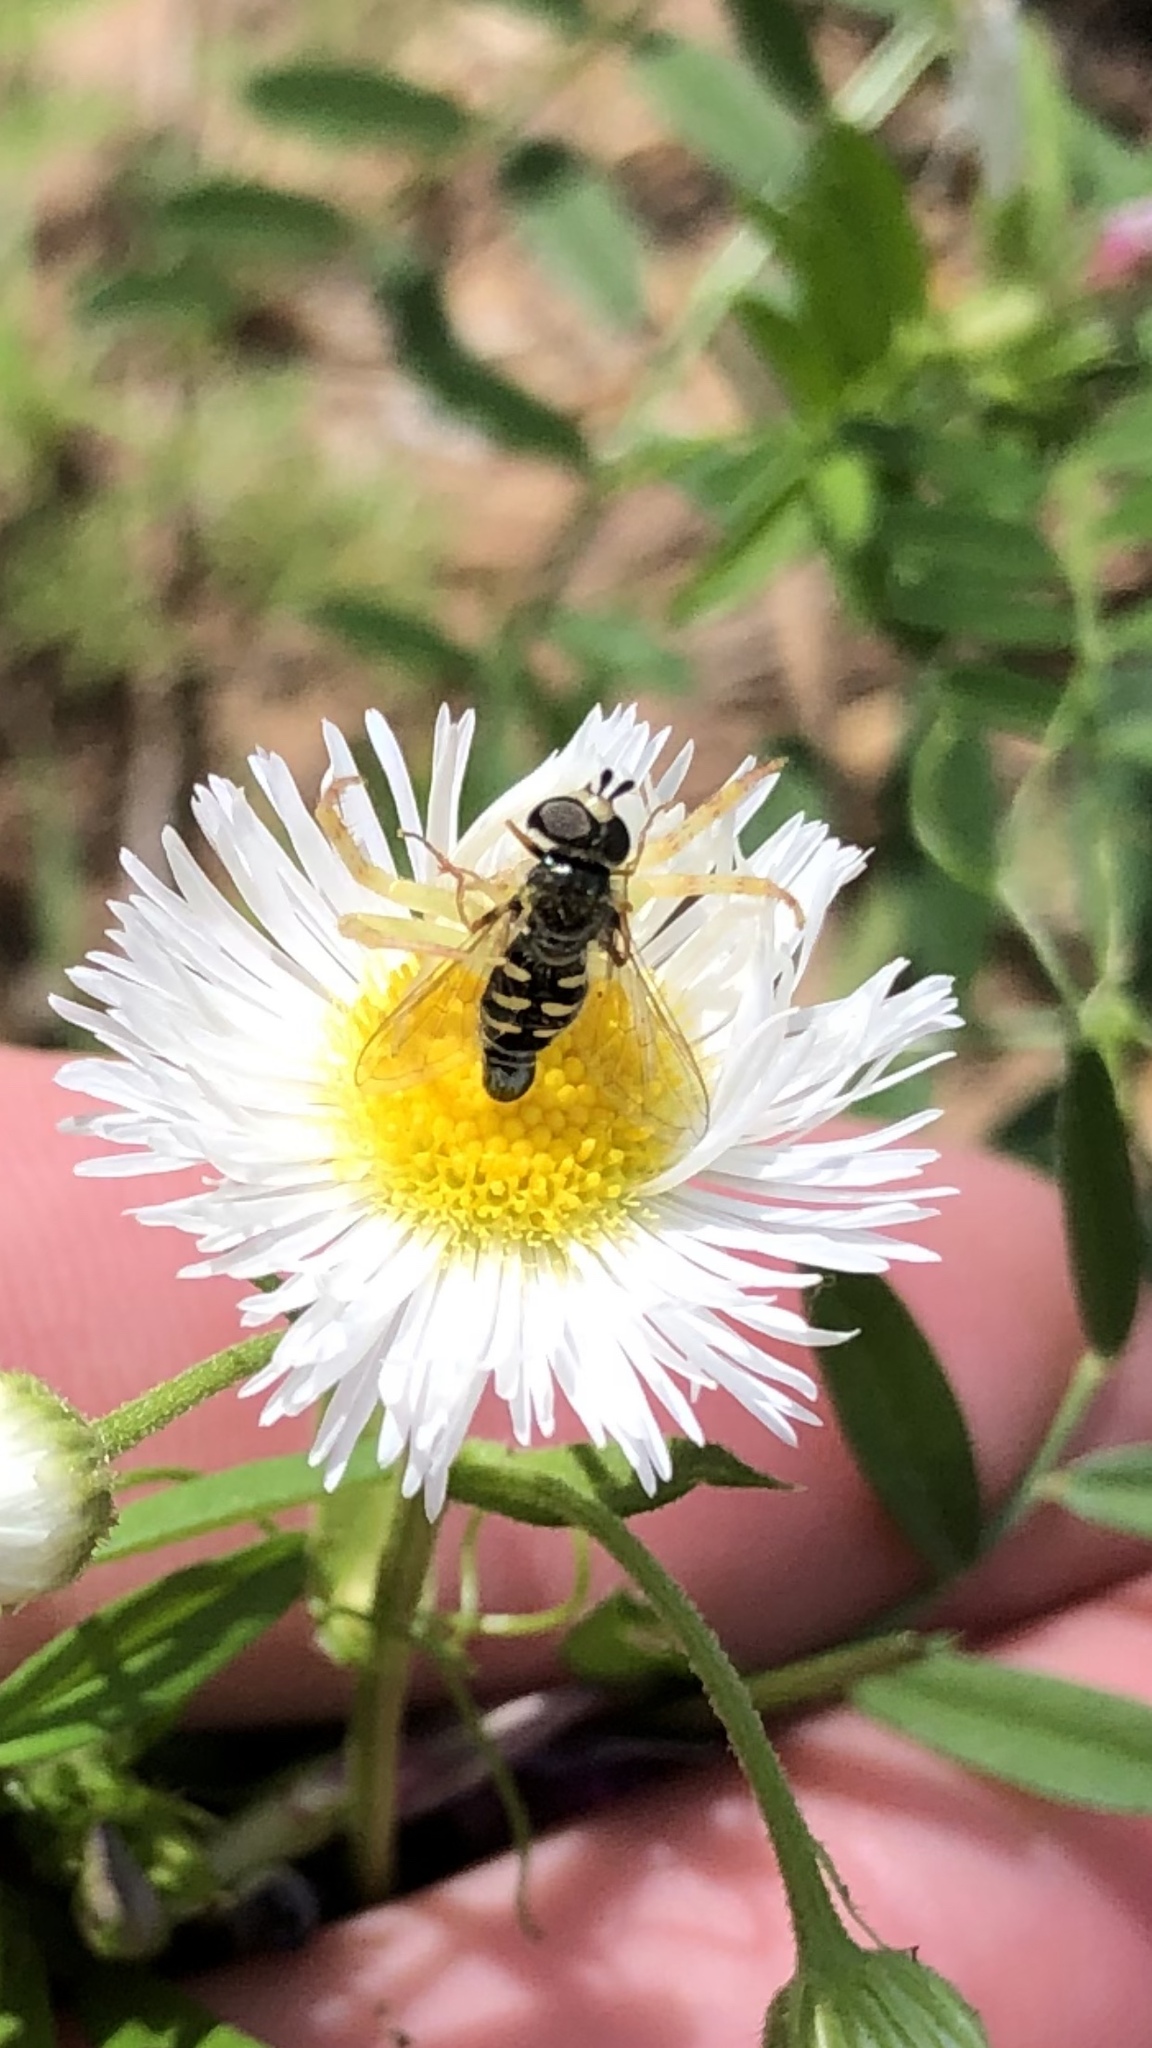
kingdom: Animalia
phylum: Arthropoda
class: Insecta
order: Diptera
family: Syrphidae
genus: Eupeodes
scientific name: Eupeodes volucris
